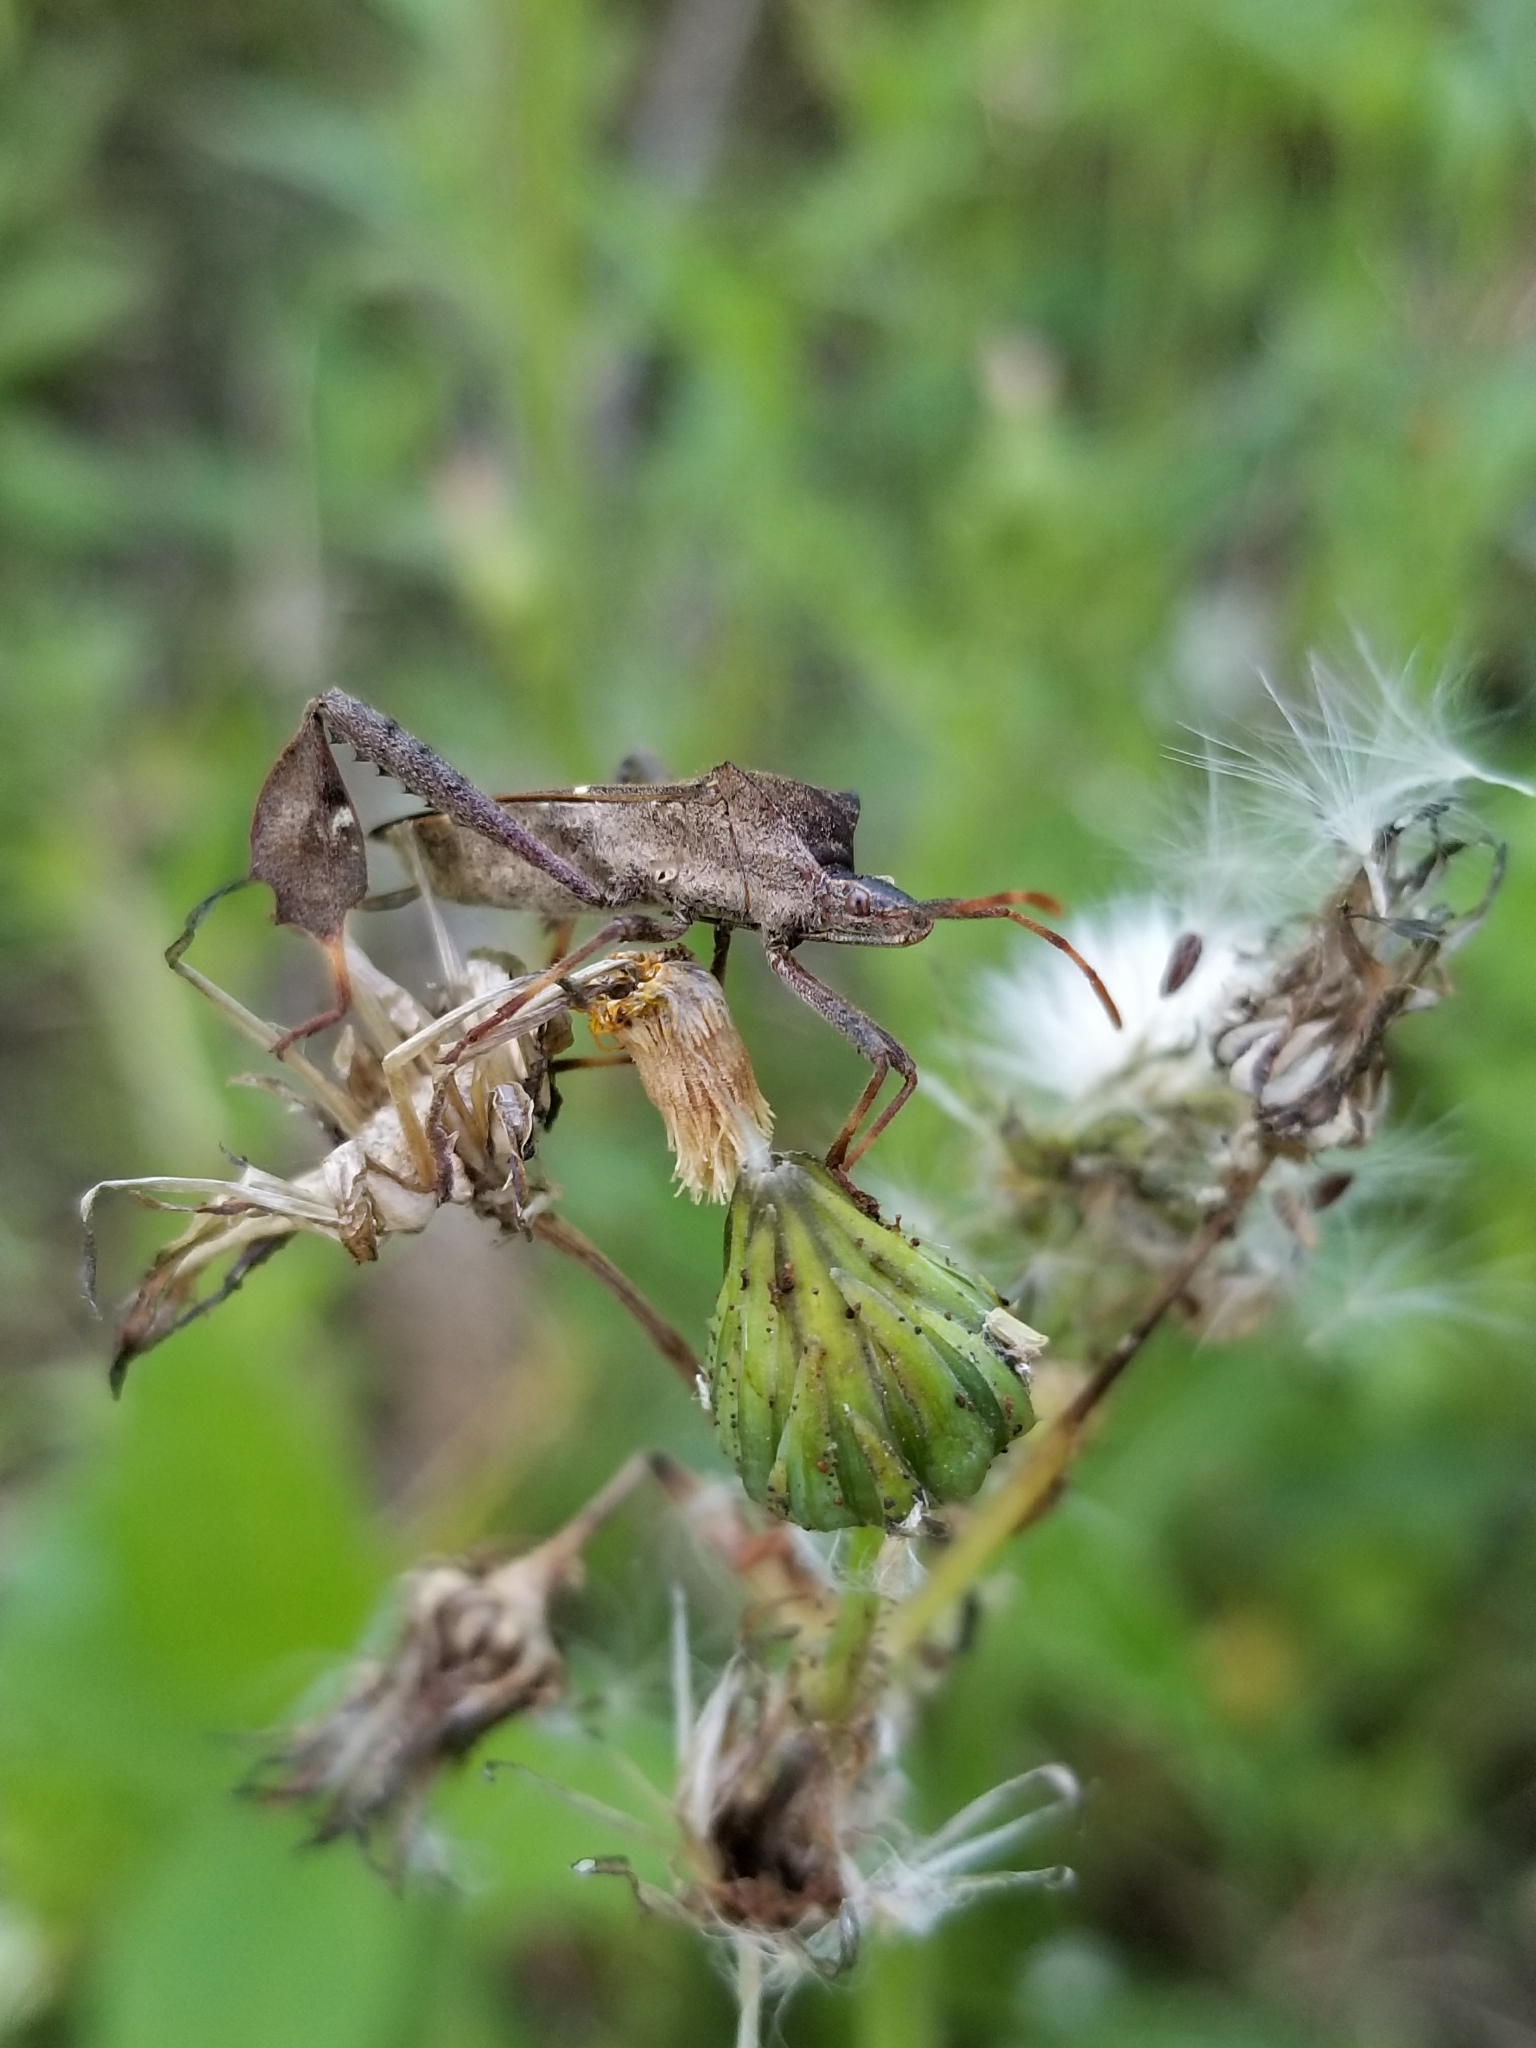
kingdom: Animalia
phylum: Arthropoda
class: Insecta
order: Hemiptera
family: Coreidae
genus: Leptoglossus
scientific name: Leptoglossus phyllopus
